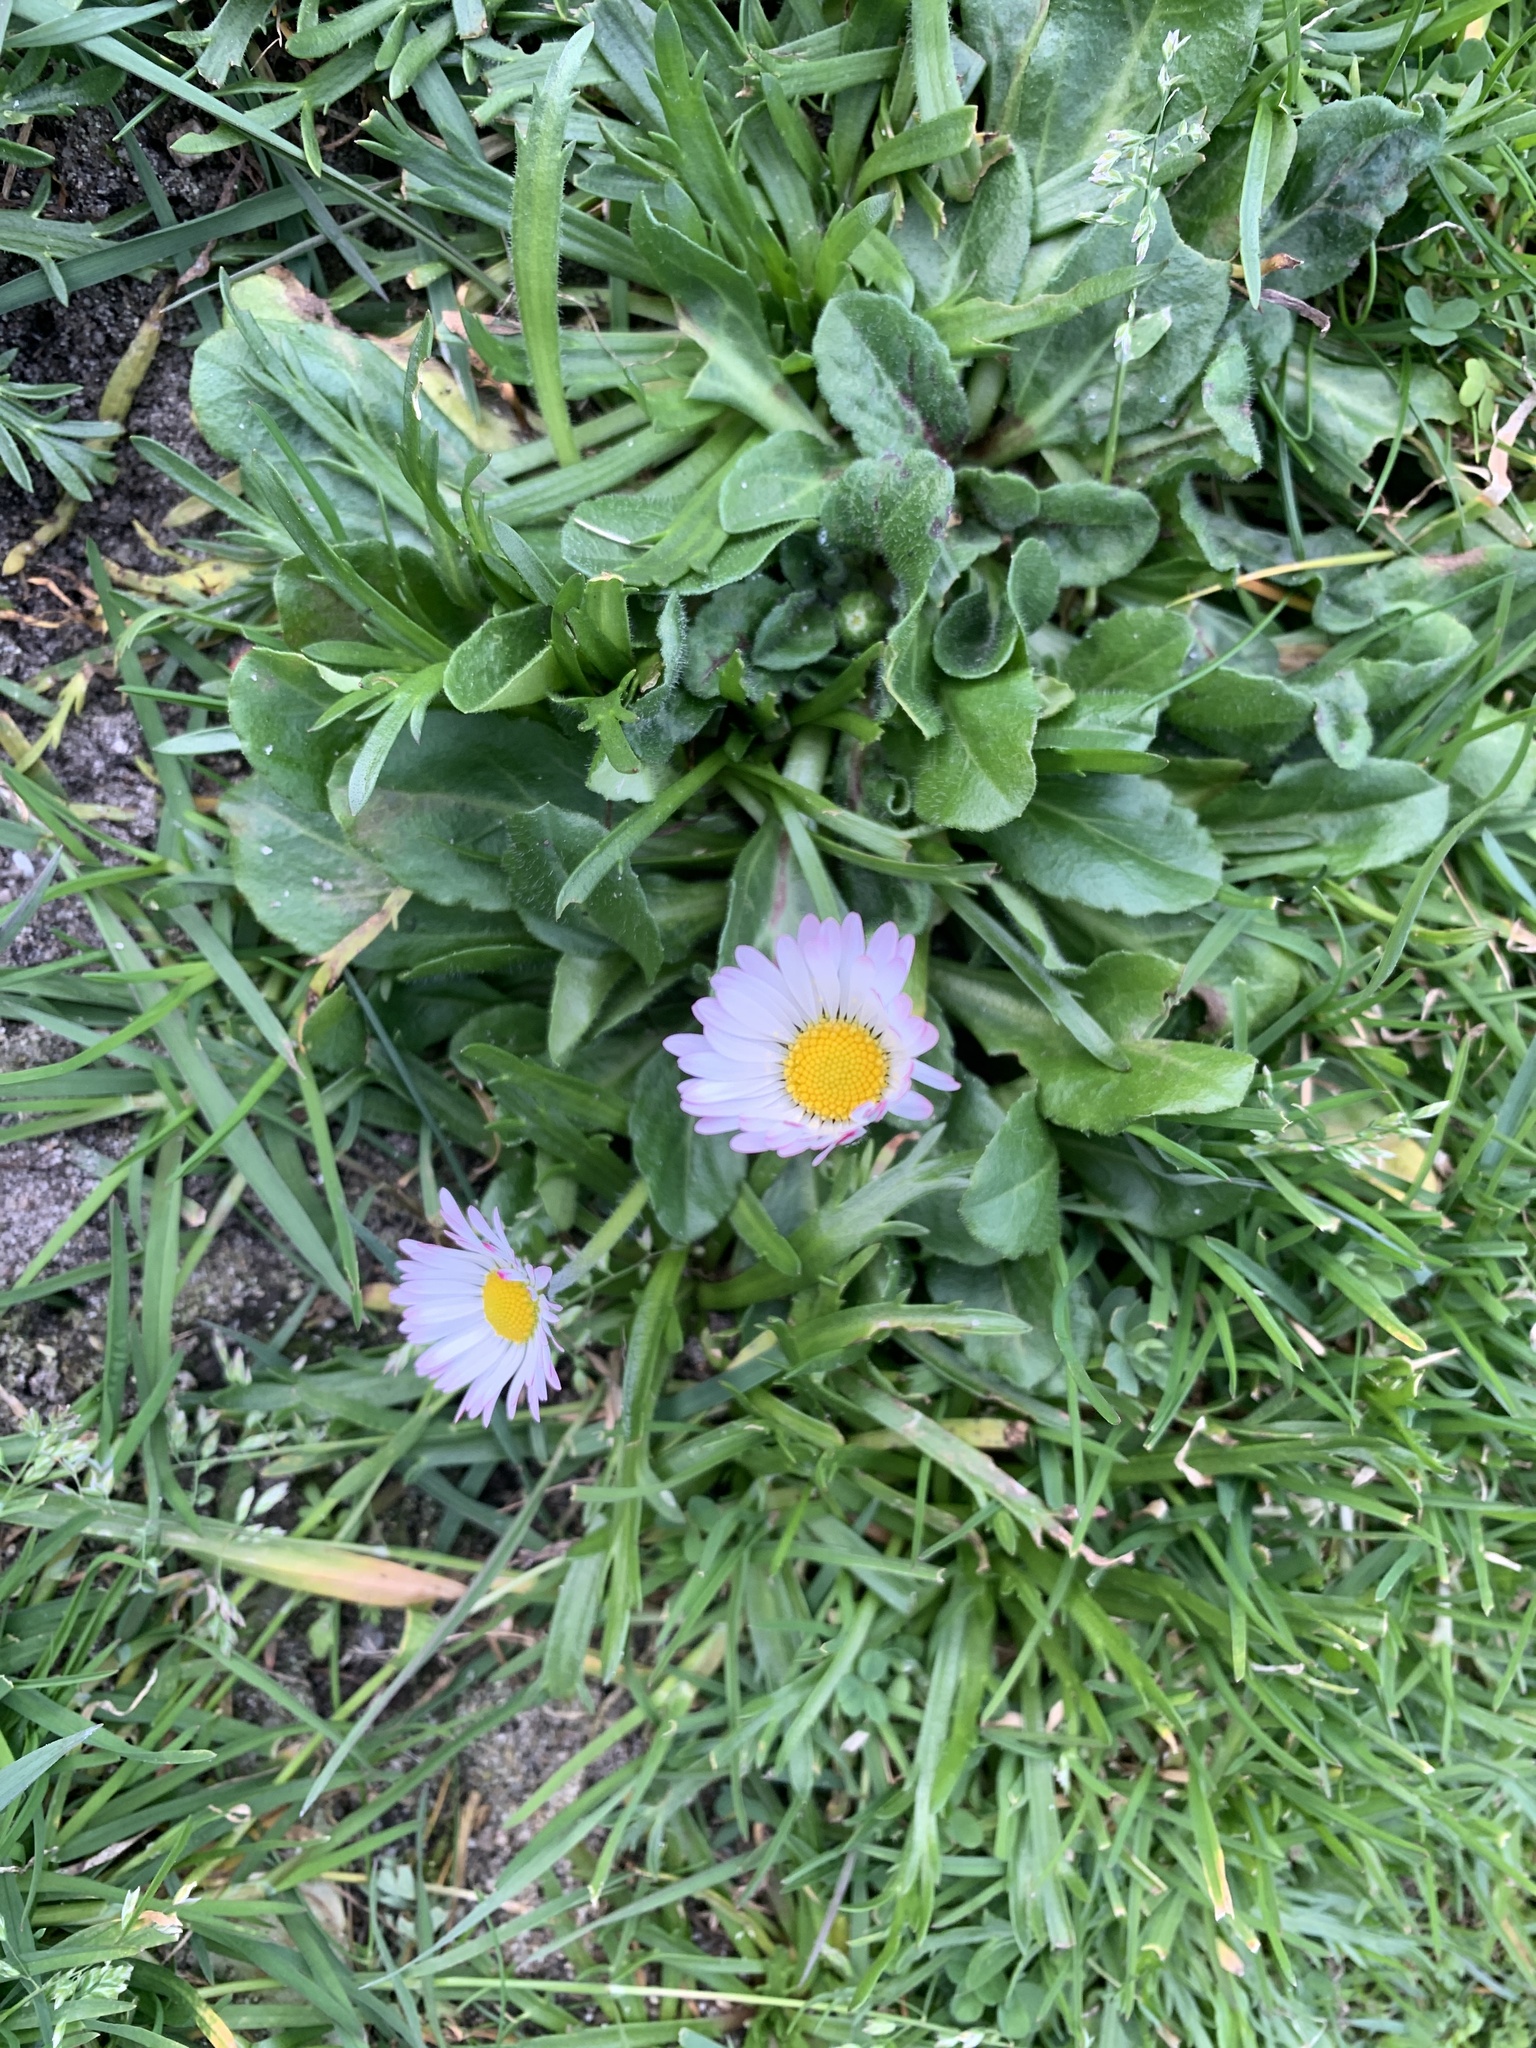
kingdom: Plantae
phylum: Tracheophyta
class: Magnoliopsida
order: Asterales
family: Asteraceae
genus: Bellis
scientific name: Bellis perennis
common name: Lawndaisy
